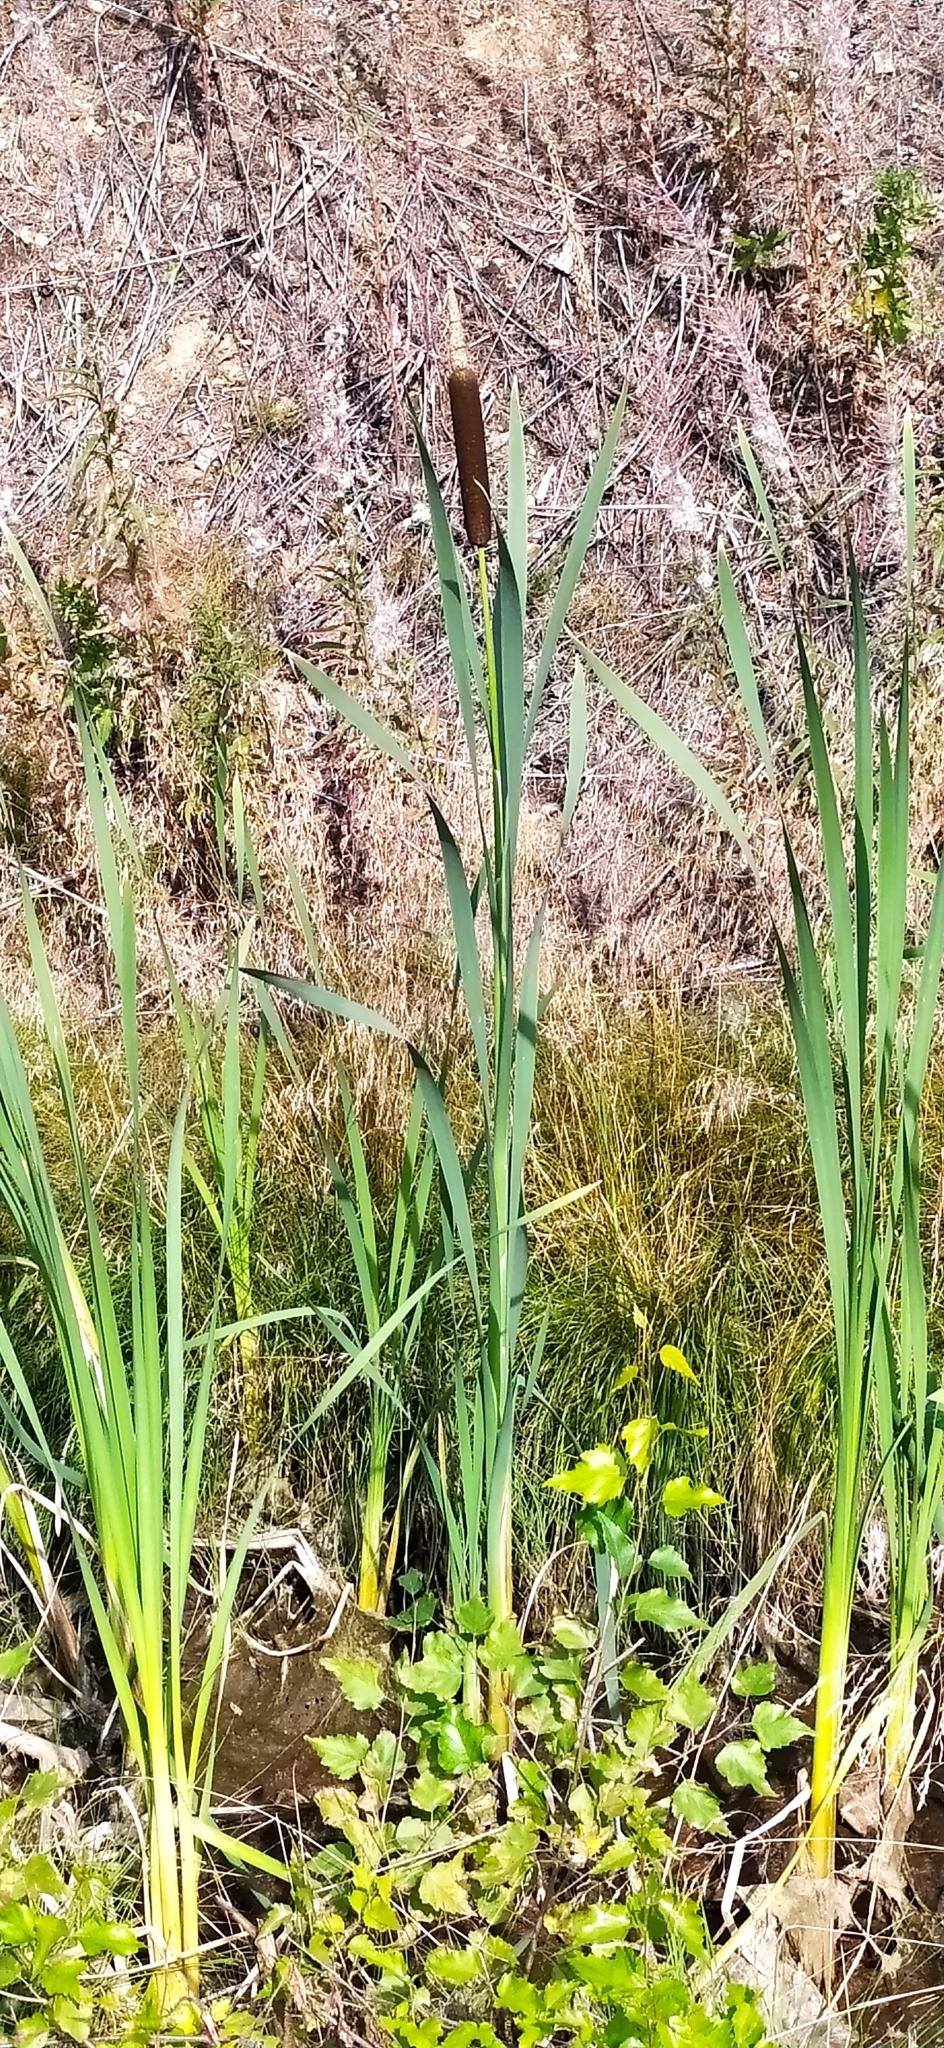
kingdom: Plantae
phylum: Tracheophyta
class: Liliopsida
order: Poales
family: Typhaceae
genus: Typha
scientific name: Typha latifolia
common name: Broadleaf cattail
